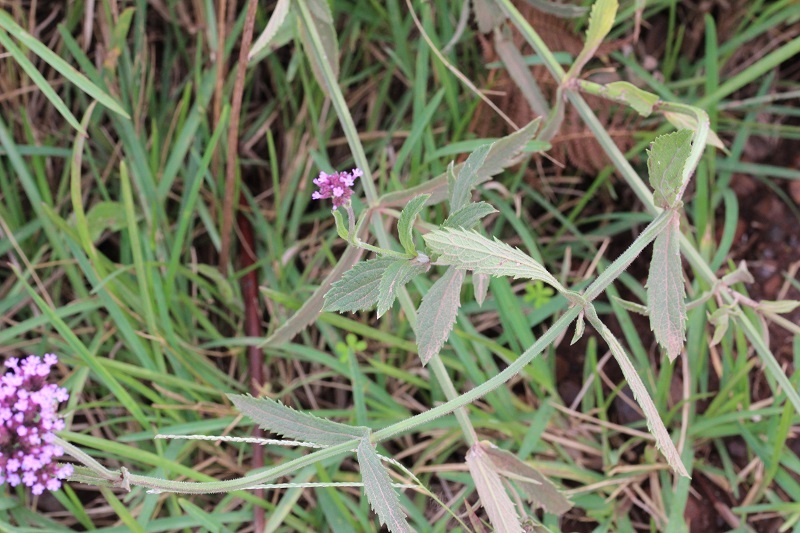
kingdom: Plantae
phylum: Tracheophyta
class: Magnoliopsida
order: Lamiales
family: Verbenaceae
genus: Verbena
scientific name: Verbena bonariensis
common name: Purpletop vervain
